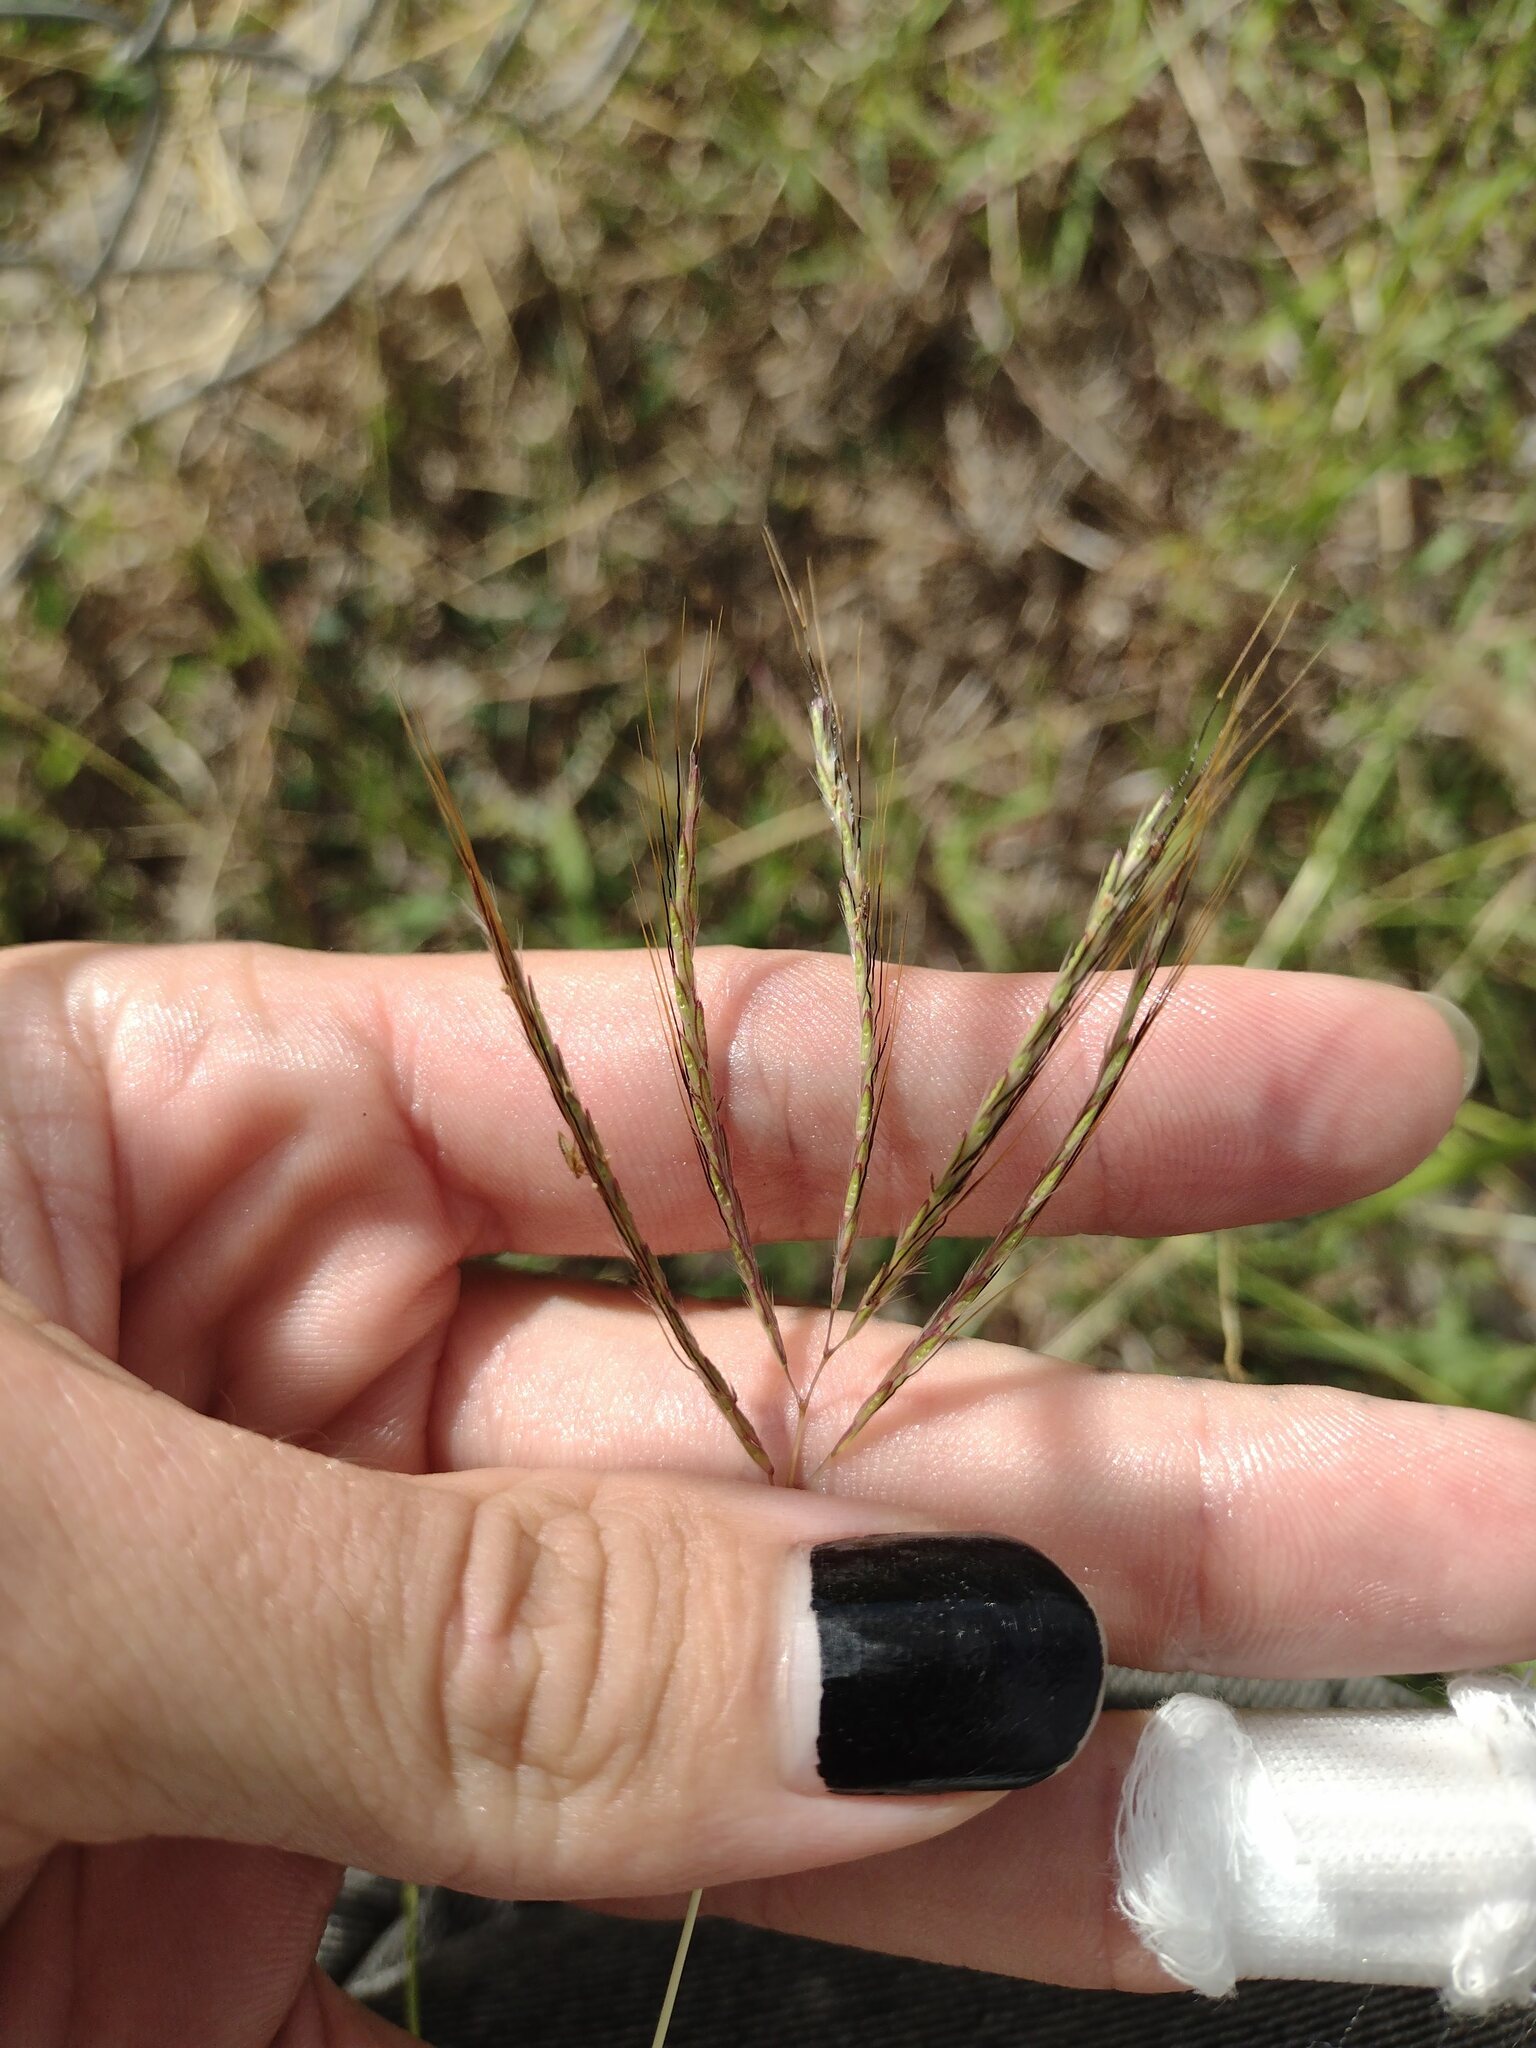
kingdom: Plantae
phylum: Tracheophyta
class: Liliopsida
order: Poales
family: Poaceae
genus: Bothriochloa
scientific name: Bothriochloa pertusa
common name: Pitted beardgrass
